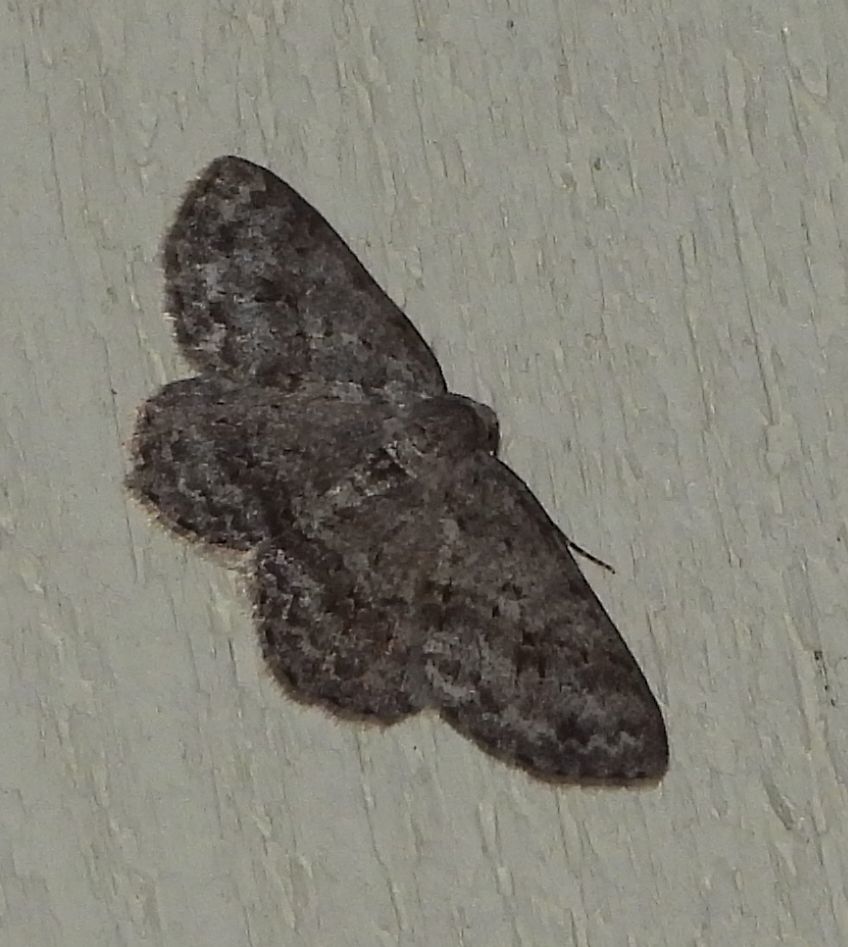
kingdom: Animalia
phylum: Arthropoda
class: Insecta
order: Lepidoptera
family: Geometridae
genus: Ectropis
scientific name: Ectropis crepuscularia
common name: Engrailed
